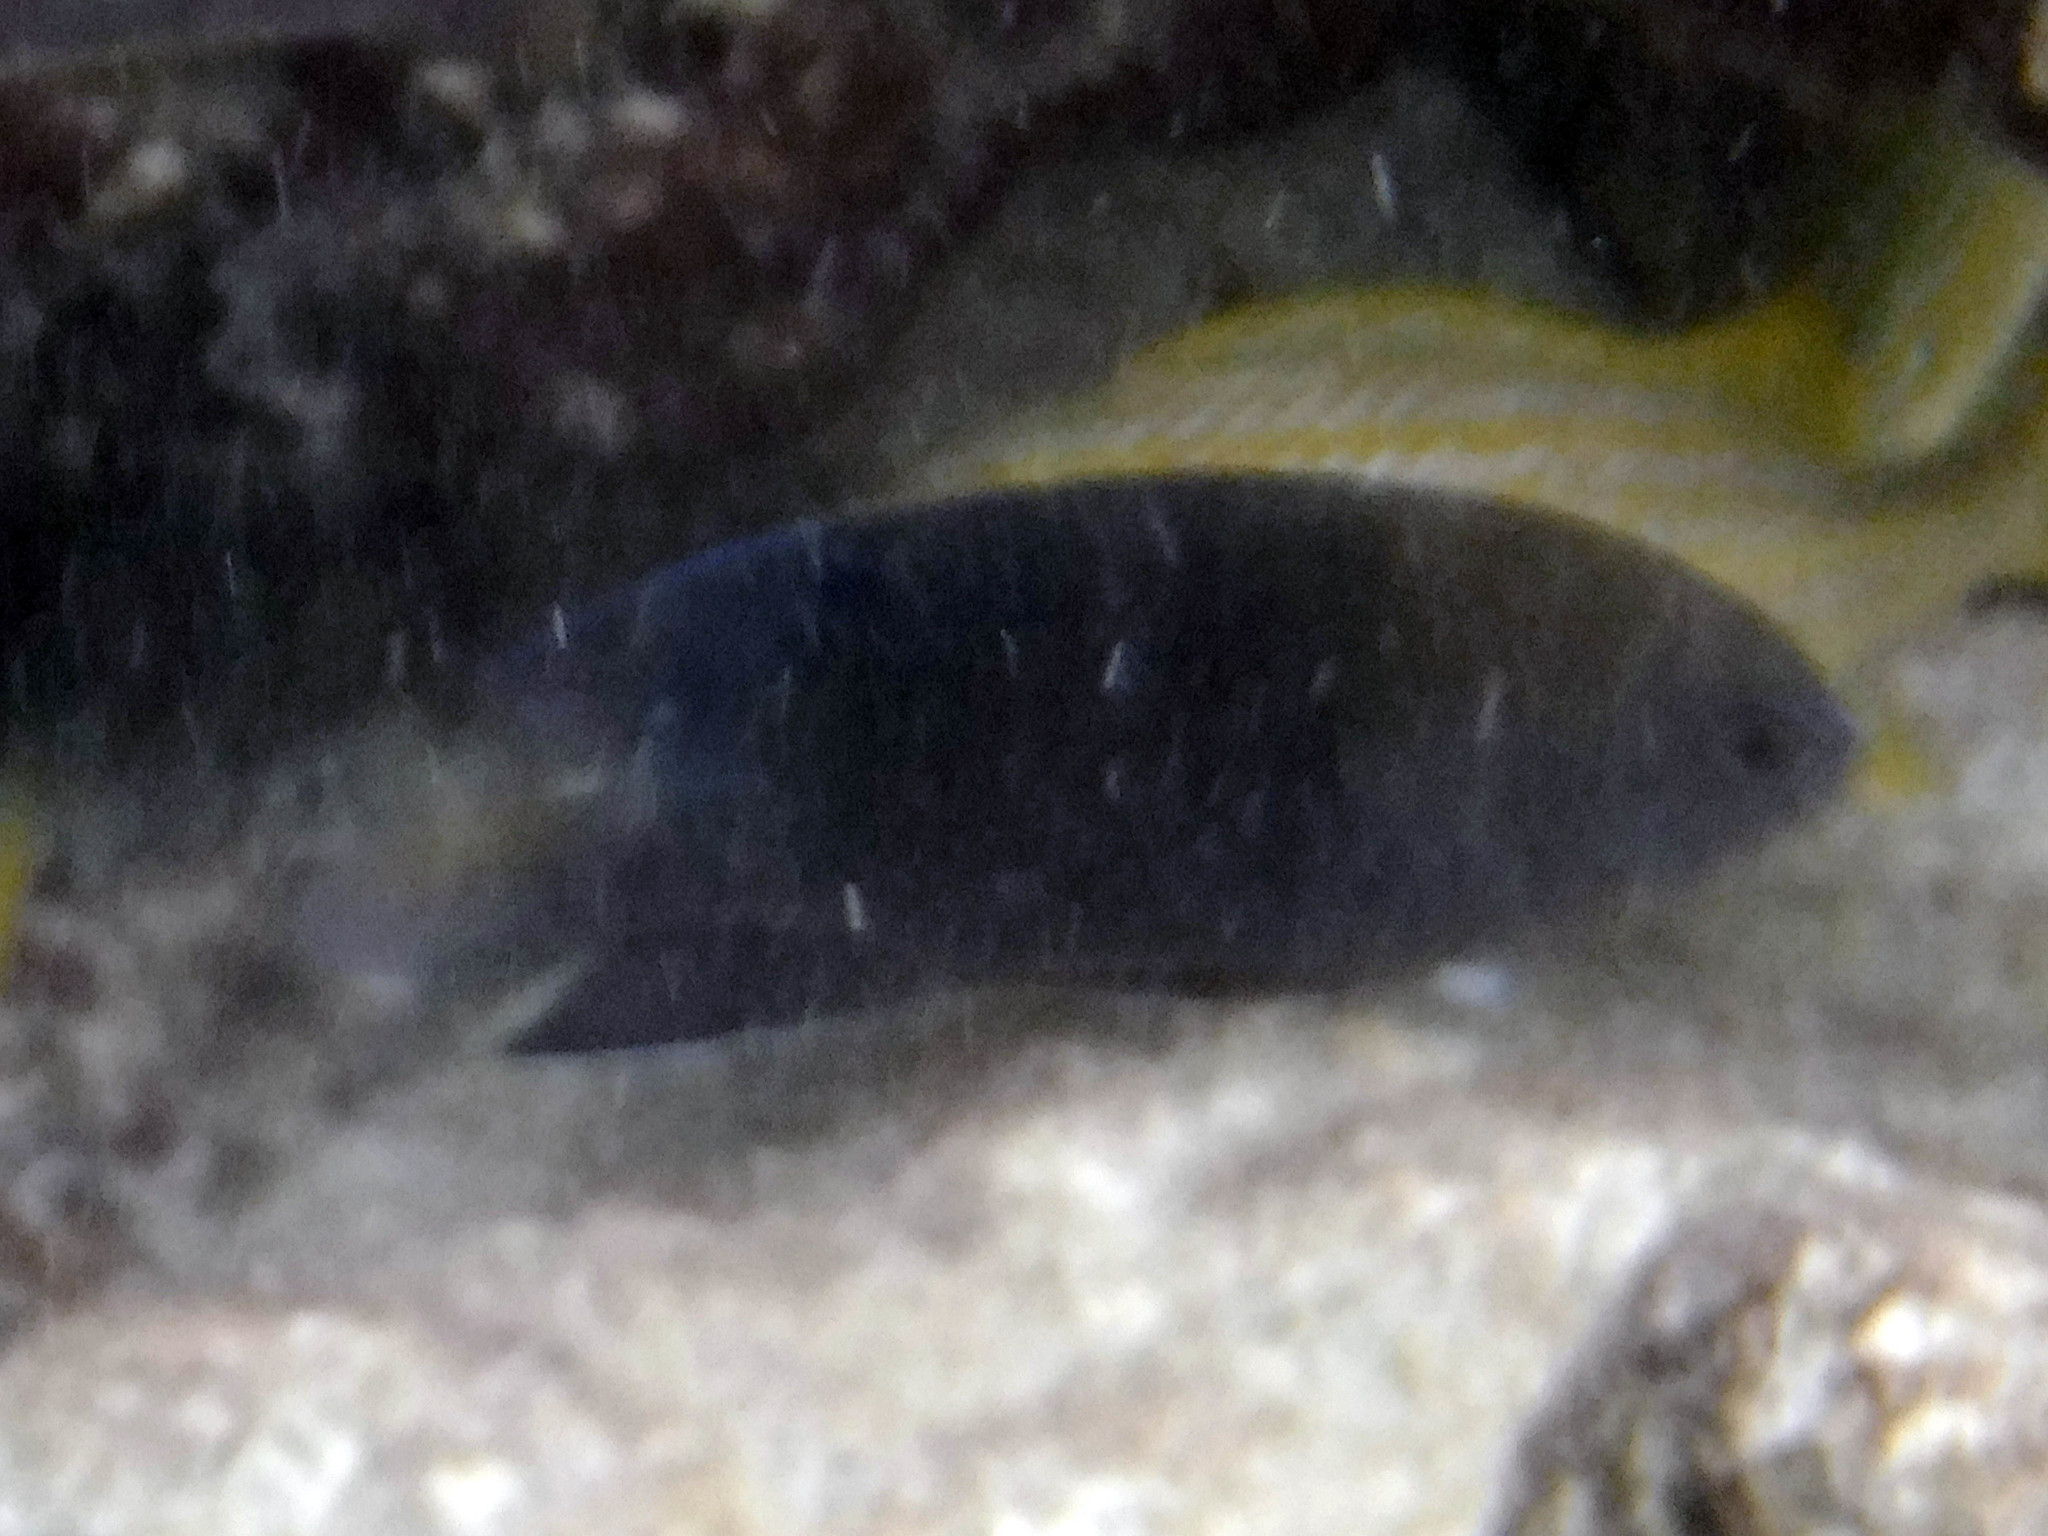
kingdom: Animalia
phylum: Chordata
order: Perciformes
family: Pomacentridae
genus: Stegastes
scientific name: Stegastes leucostictus
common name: Beaugregory
